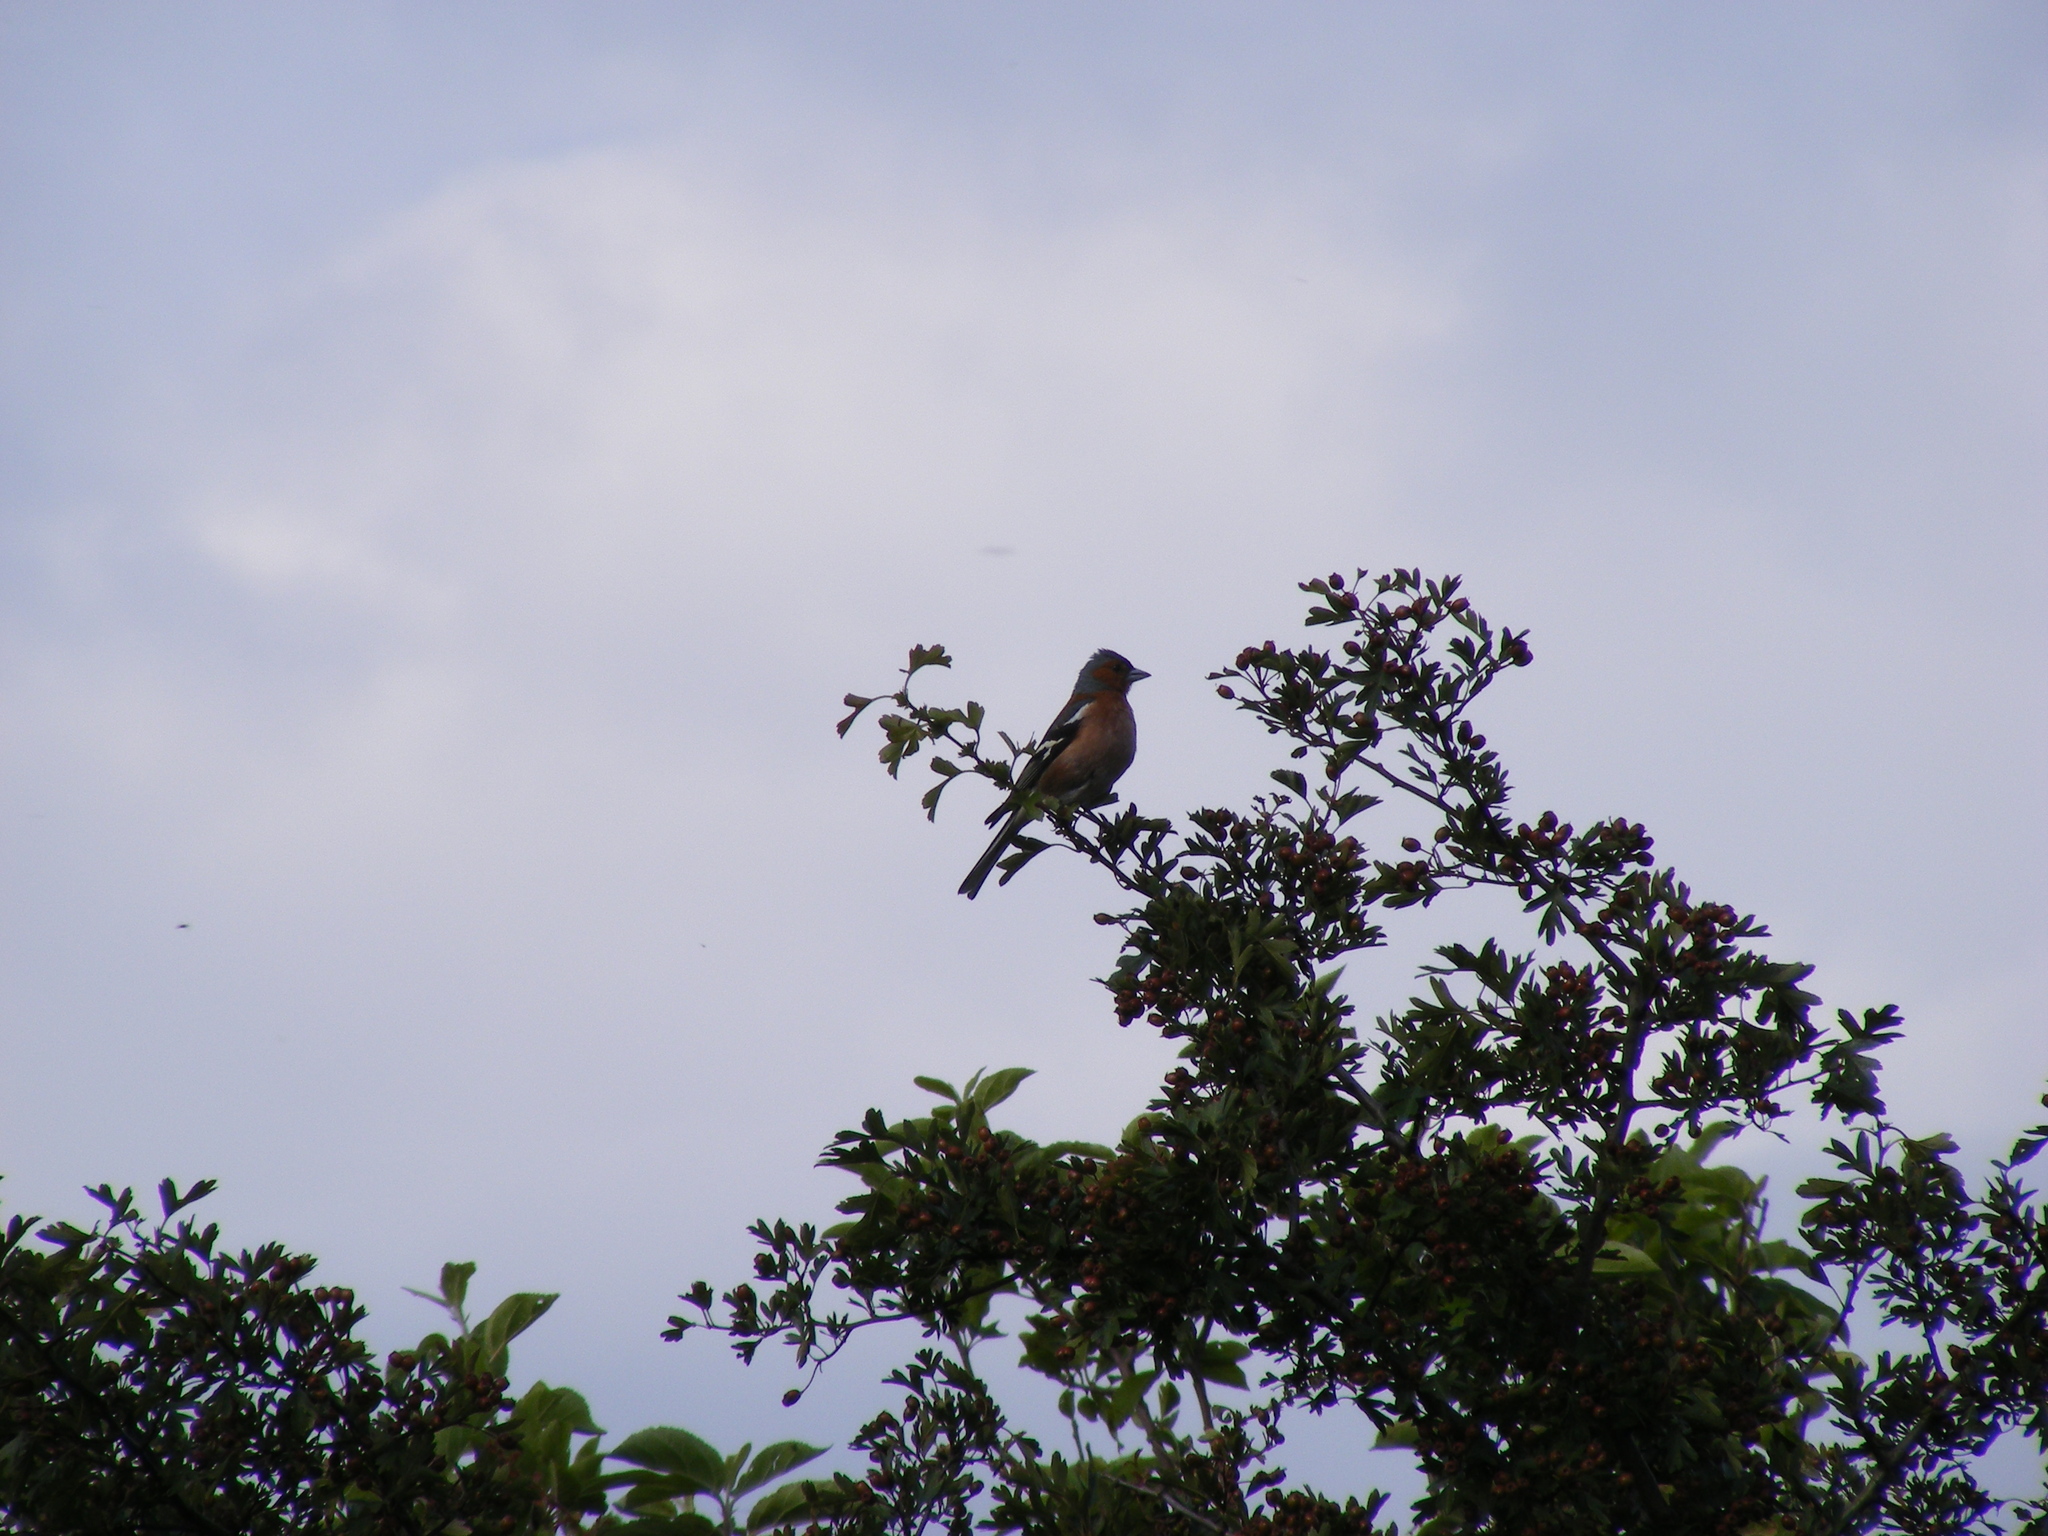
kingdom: Animalia
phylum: Chordata
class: Aves
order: Passeriformes
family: Fringillidae
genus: Fringilla
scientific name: Fringilla coelebs
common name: Common chaffinch
